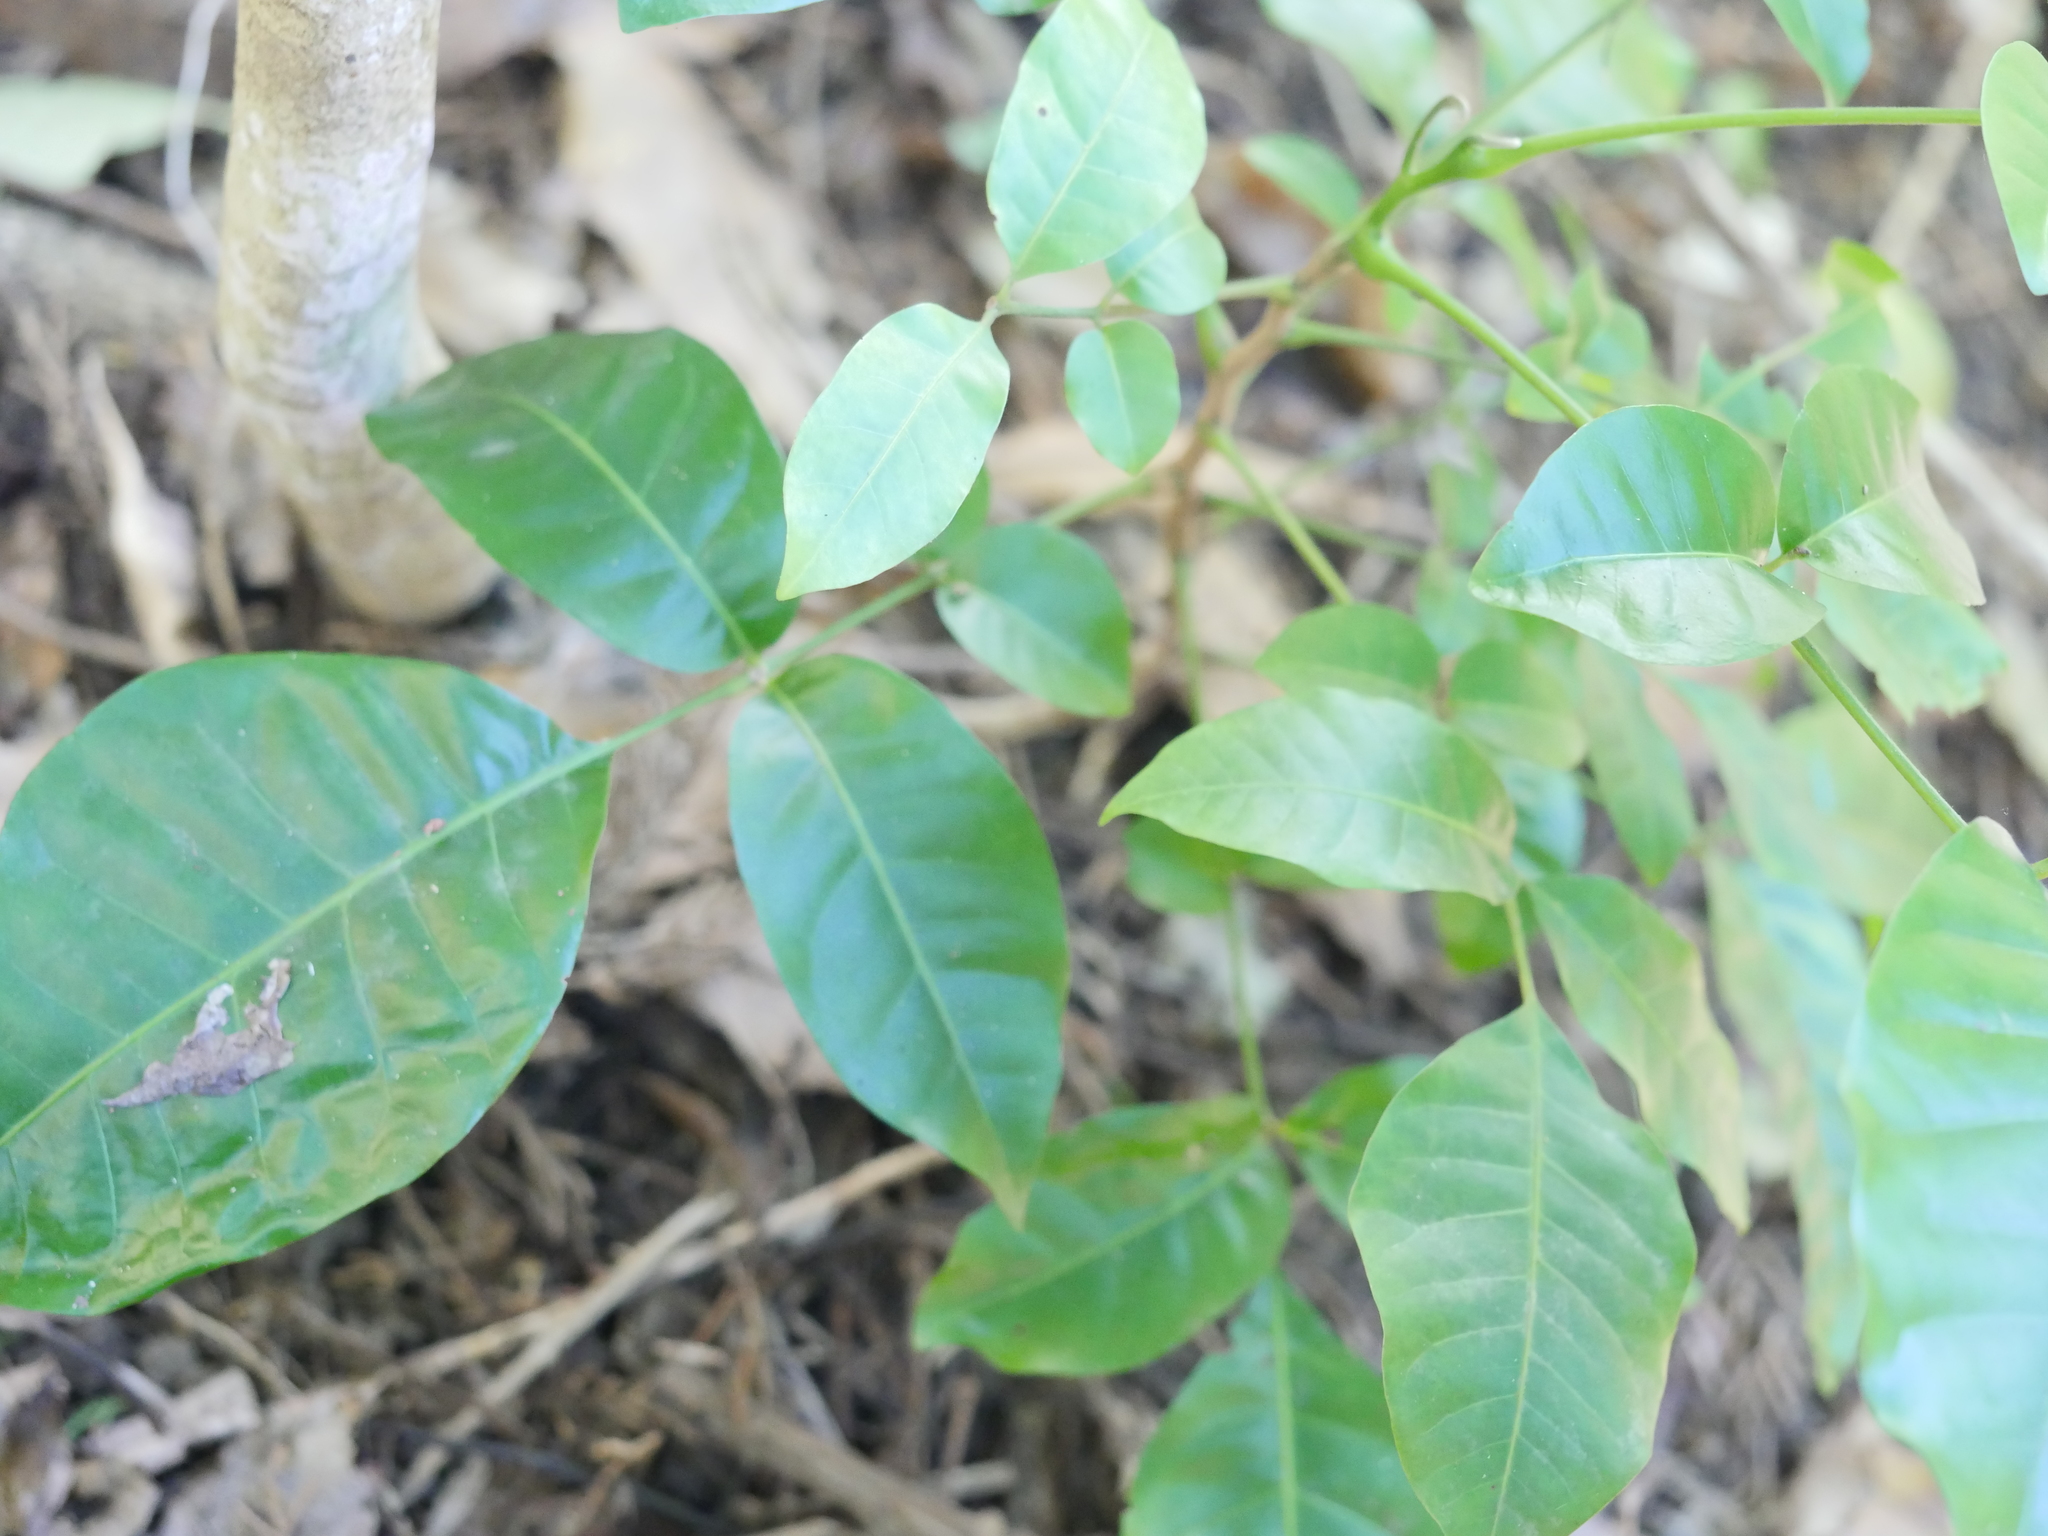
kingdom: Plantae
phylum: Tracheophyta
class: Magnoliopsida
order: Sapindales
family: Meliaceae
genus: Didymocheton
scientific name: Didymocheton spectabilis
